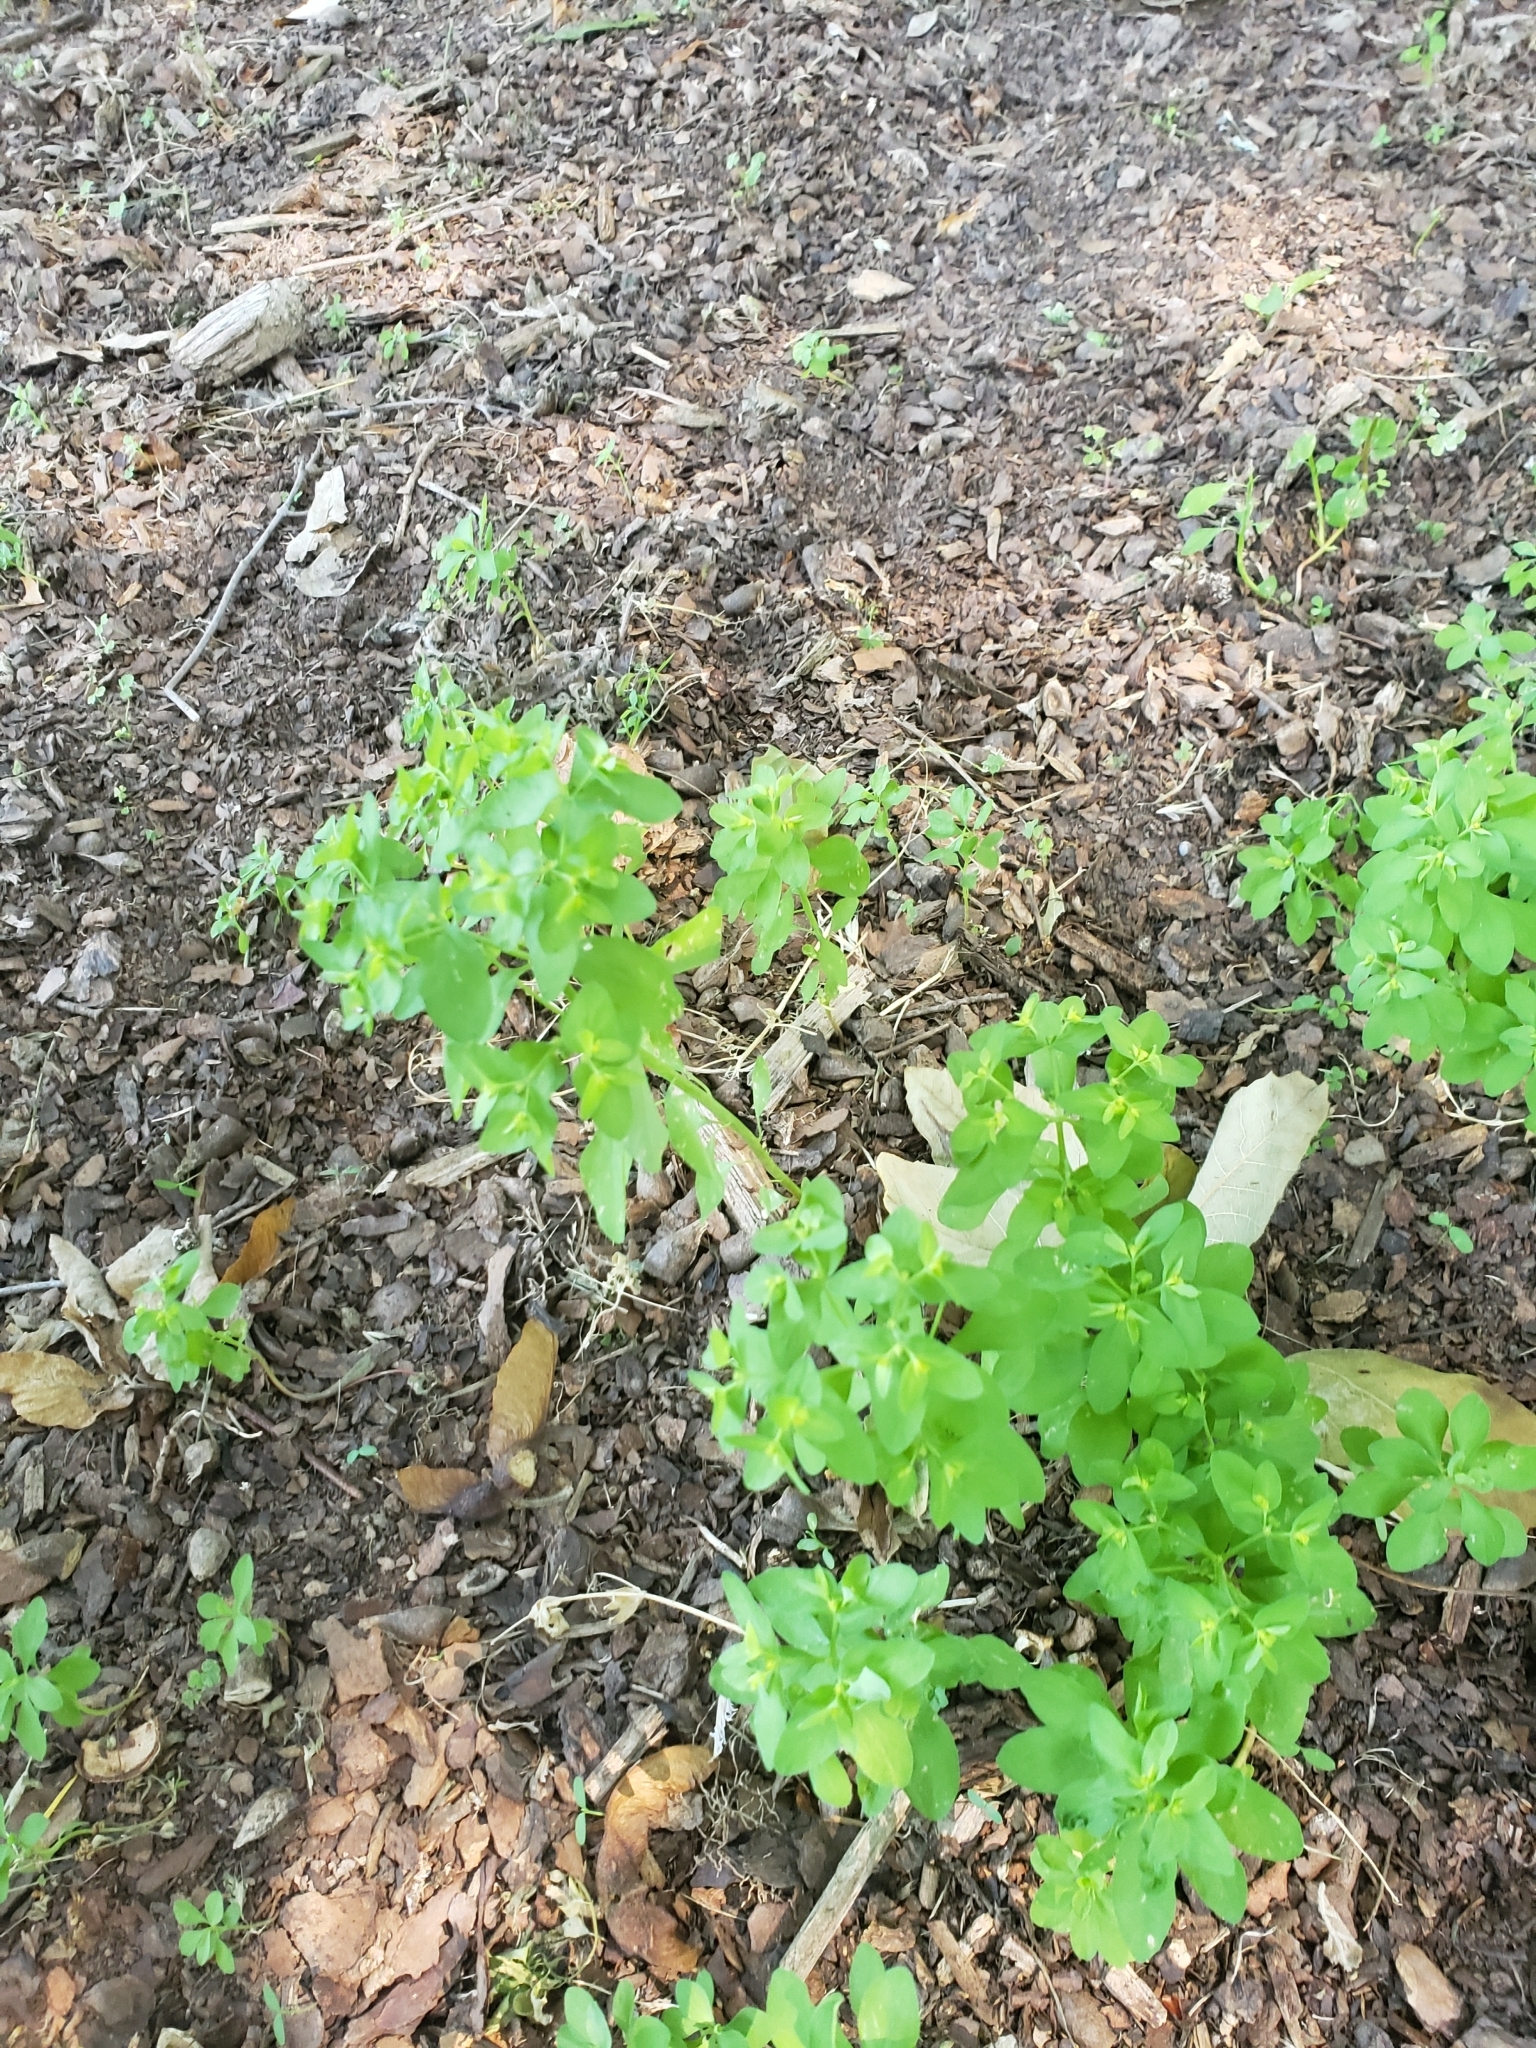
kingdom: Plantae
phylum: Tracheophyta
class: Magnoliopsida
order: Malpighiales
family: Euphorbiaceae
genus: Euphorbia
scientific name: Euphorbia peplus
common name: Petty spurge
